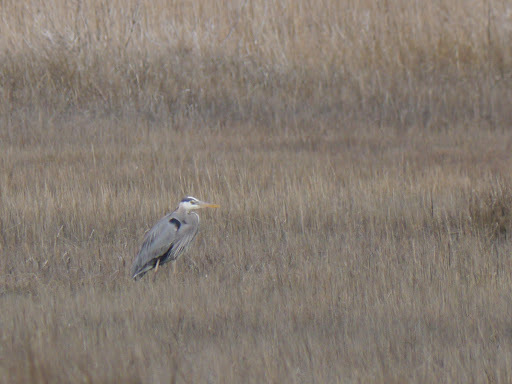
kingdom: Animalia
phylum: Chordata
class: Aves
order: Pelecaniformes
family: Ardeidae
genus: Ardea
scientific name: Ardea herodias
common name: Great blue heron
